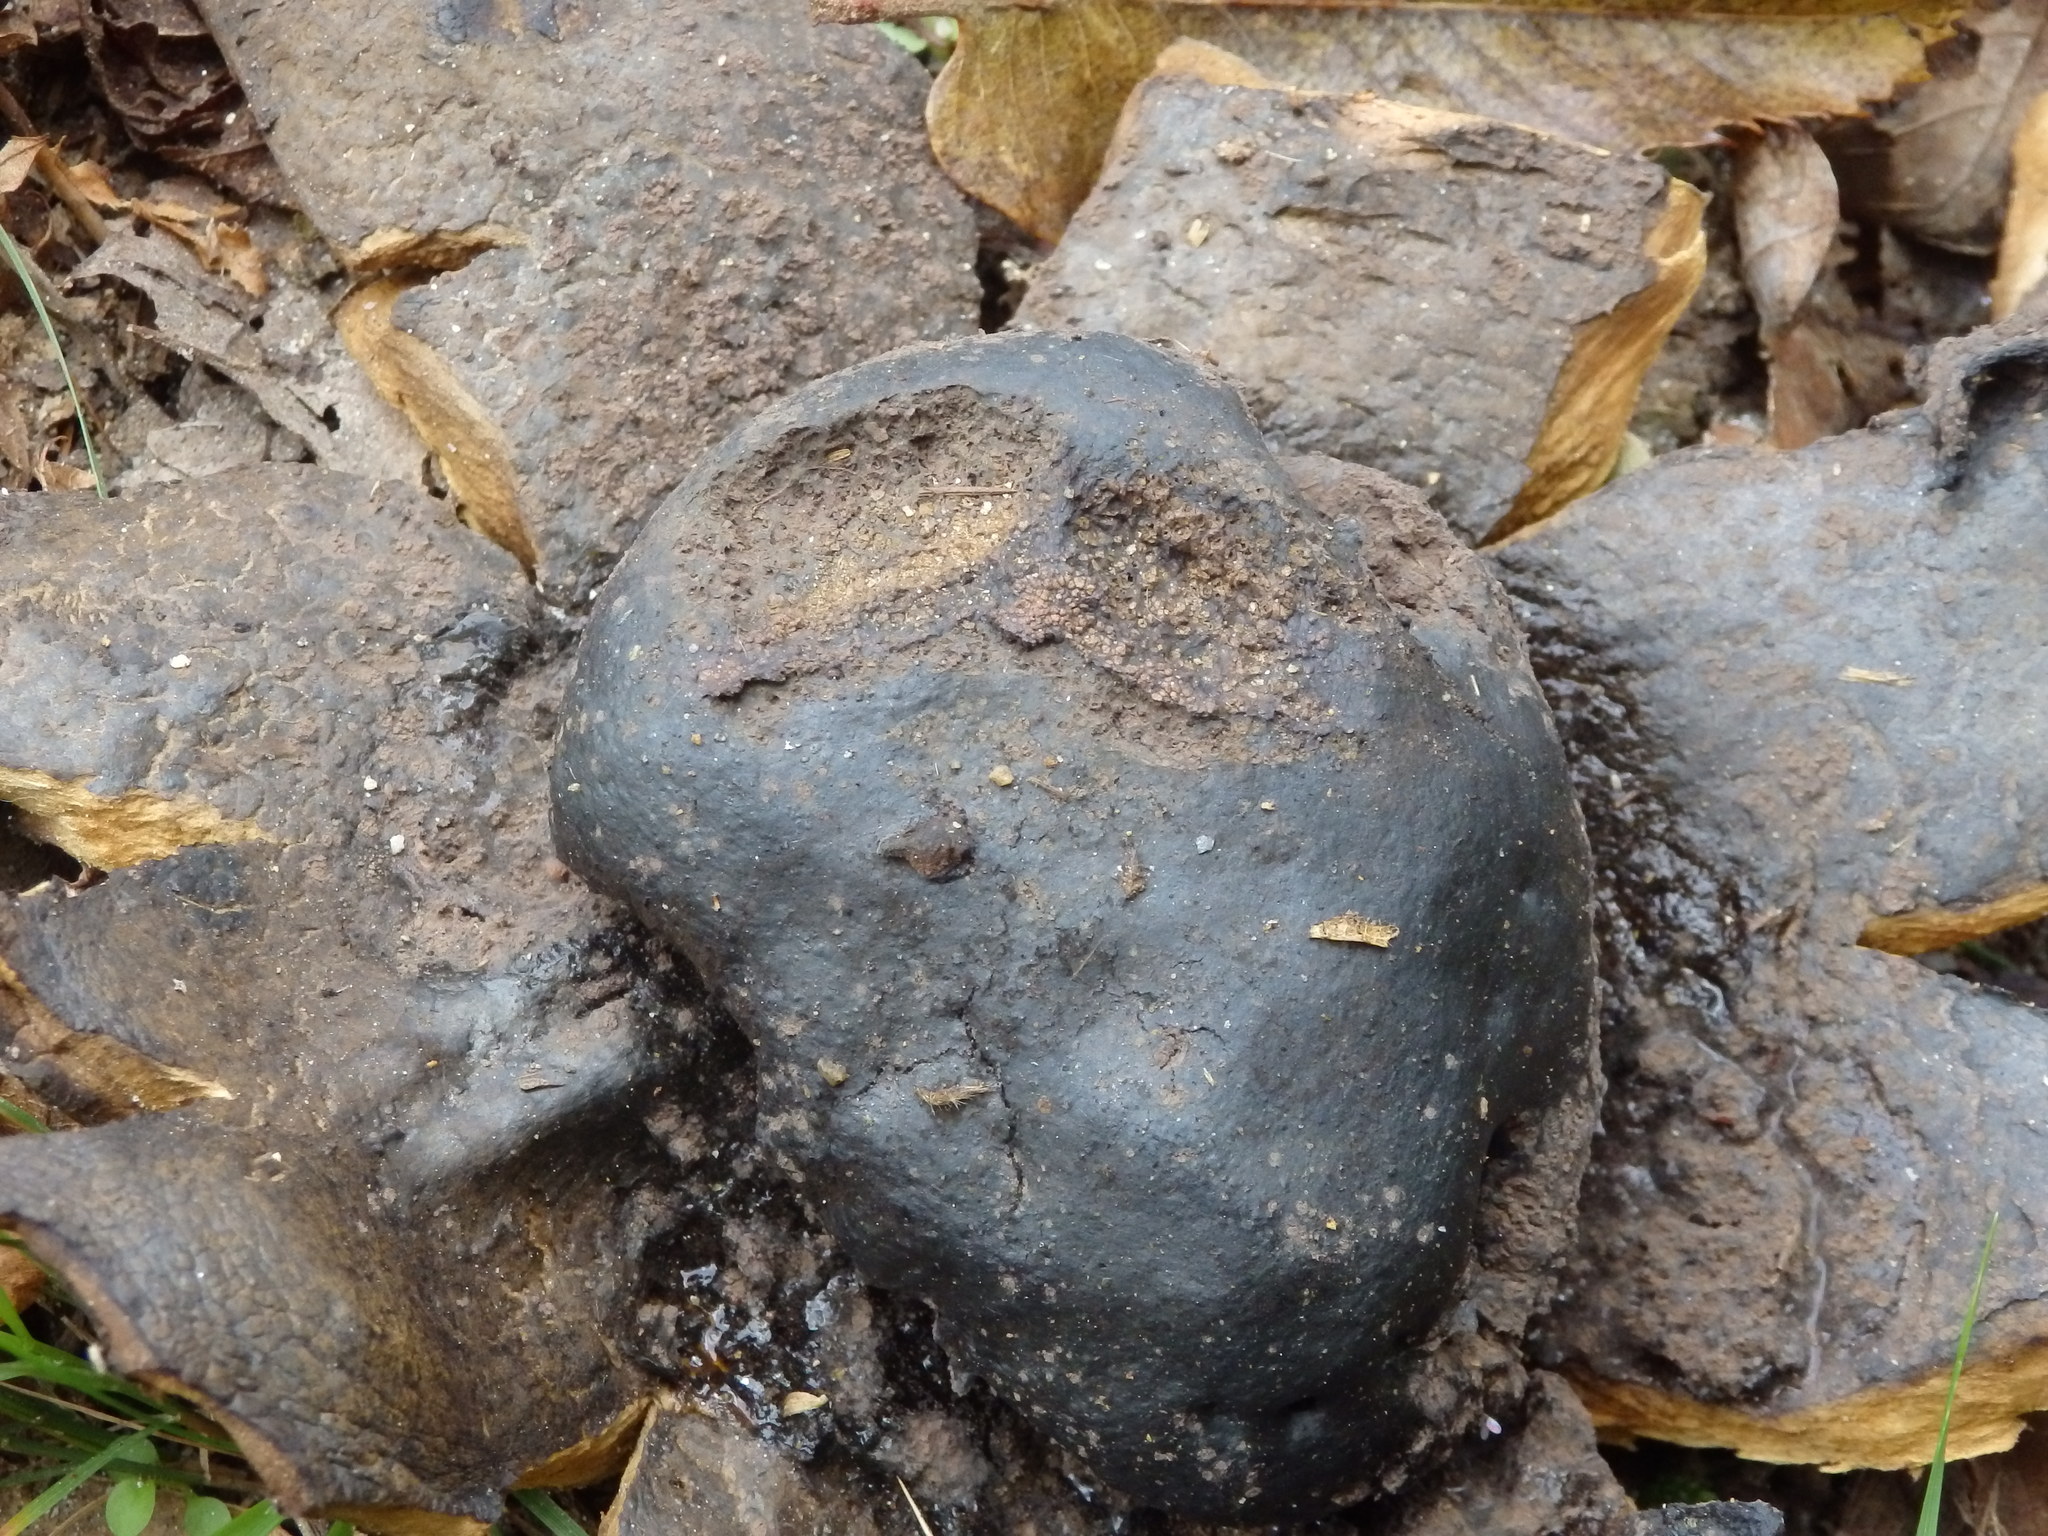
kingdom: Fungi
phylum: Basidiomycota
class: Agaricomycetes
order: Boletales
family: Sclerodermataceae
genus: Scleroderma
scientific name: Scleroderma polyrhizum
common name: Many-rooted earthball
